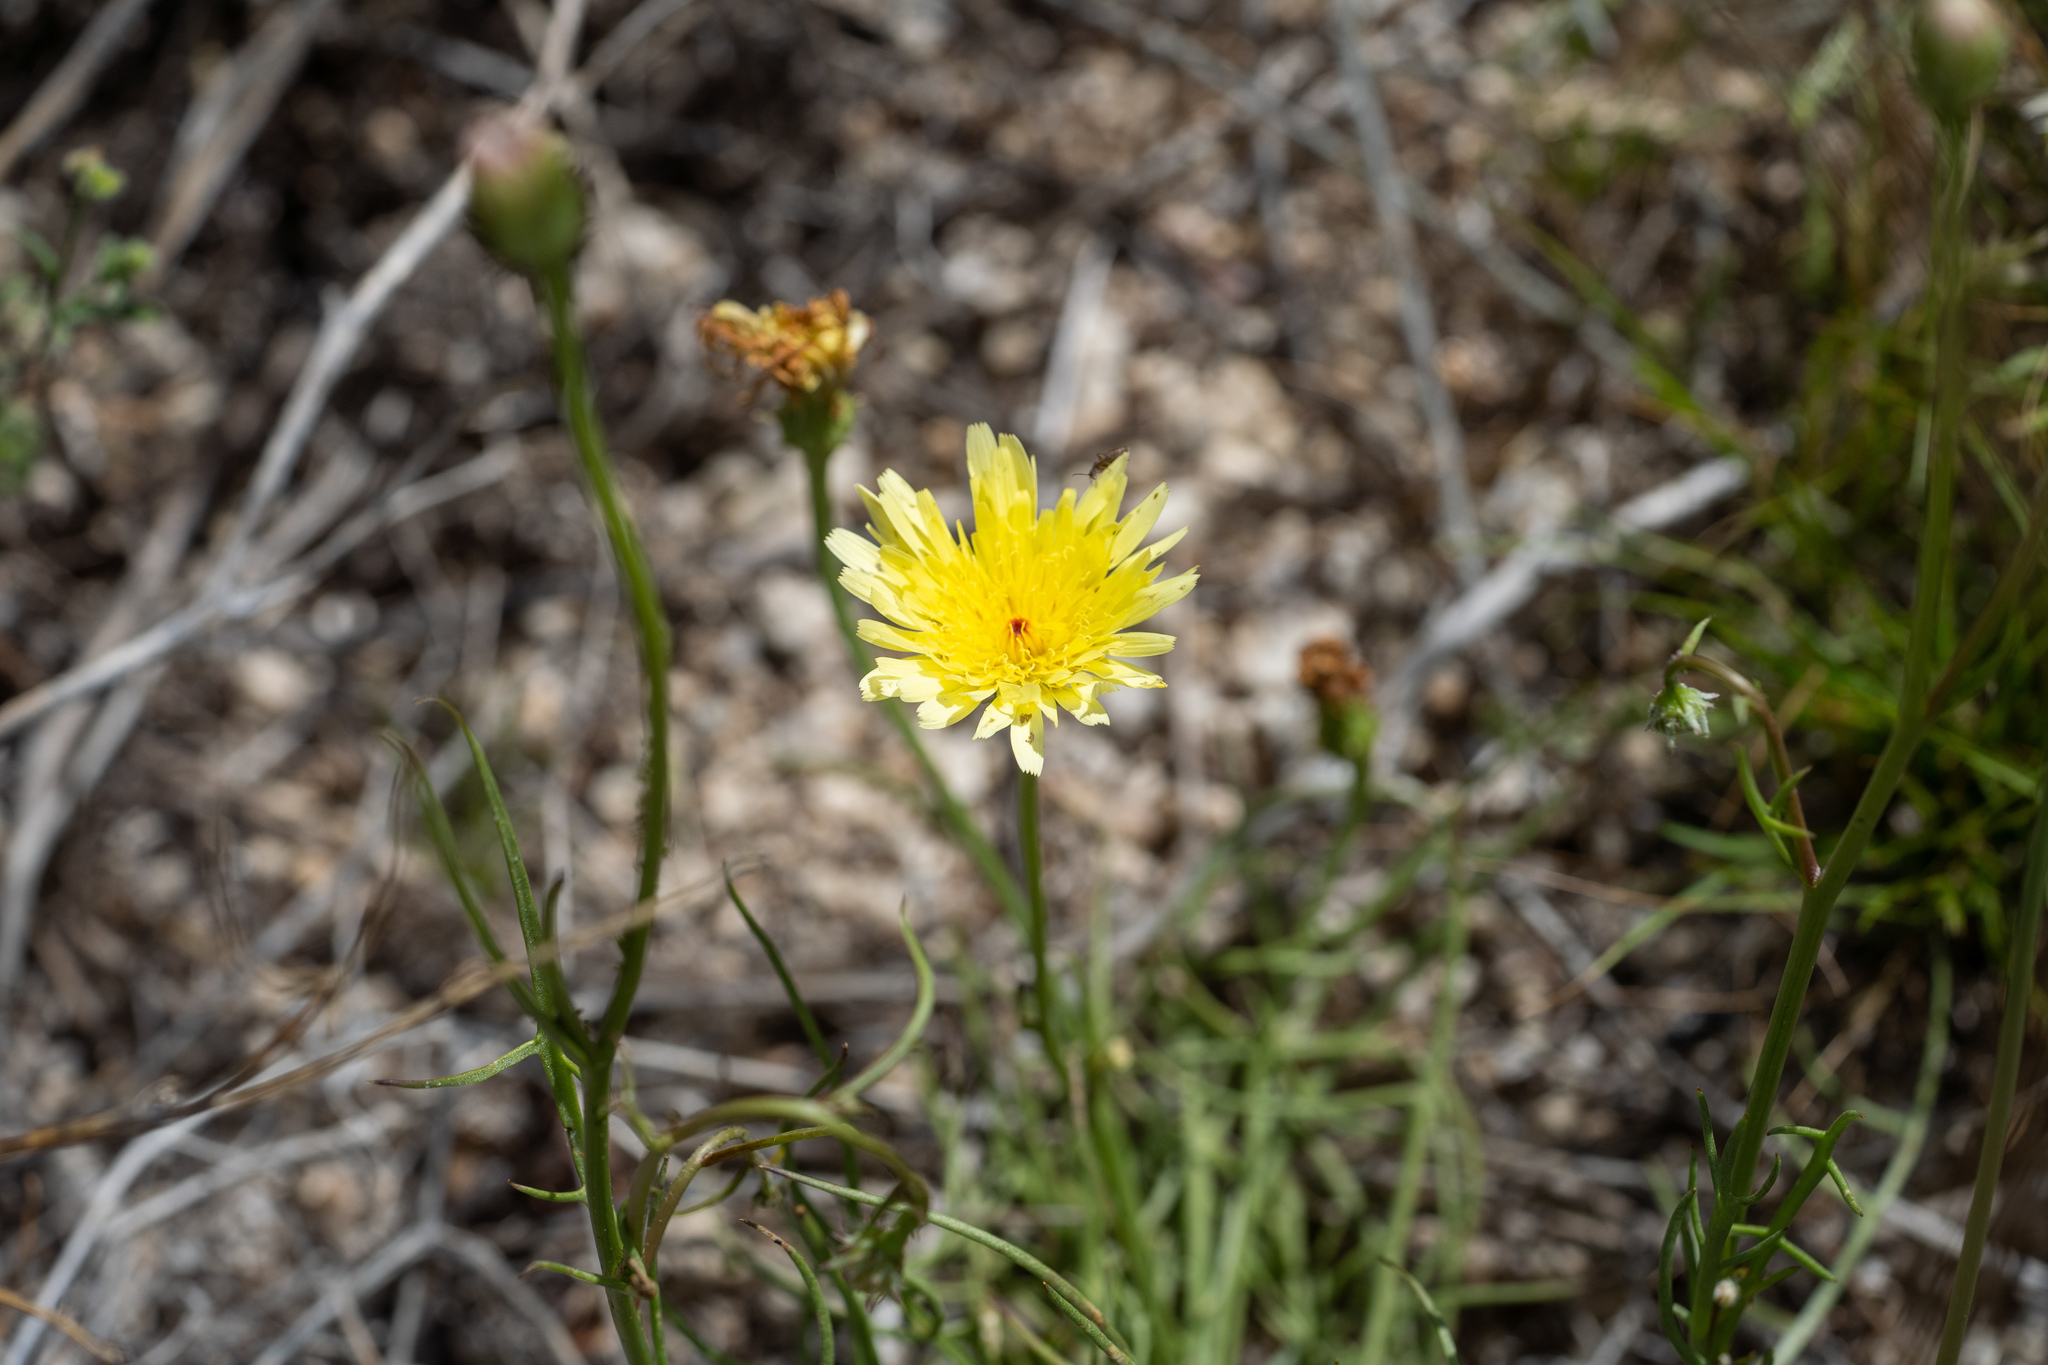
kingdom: Plantae
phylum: Tracheophyta
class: Magnoliopsida
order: Asterales
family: Asteraceae
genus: Malacothrix
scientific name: Malacothrix glabrata
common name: Smooth desert-dandelion
